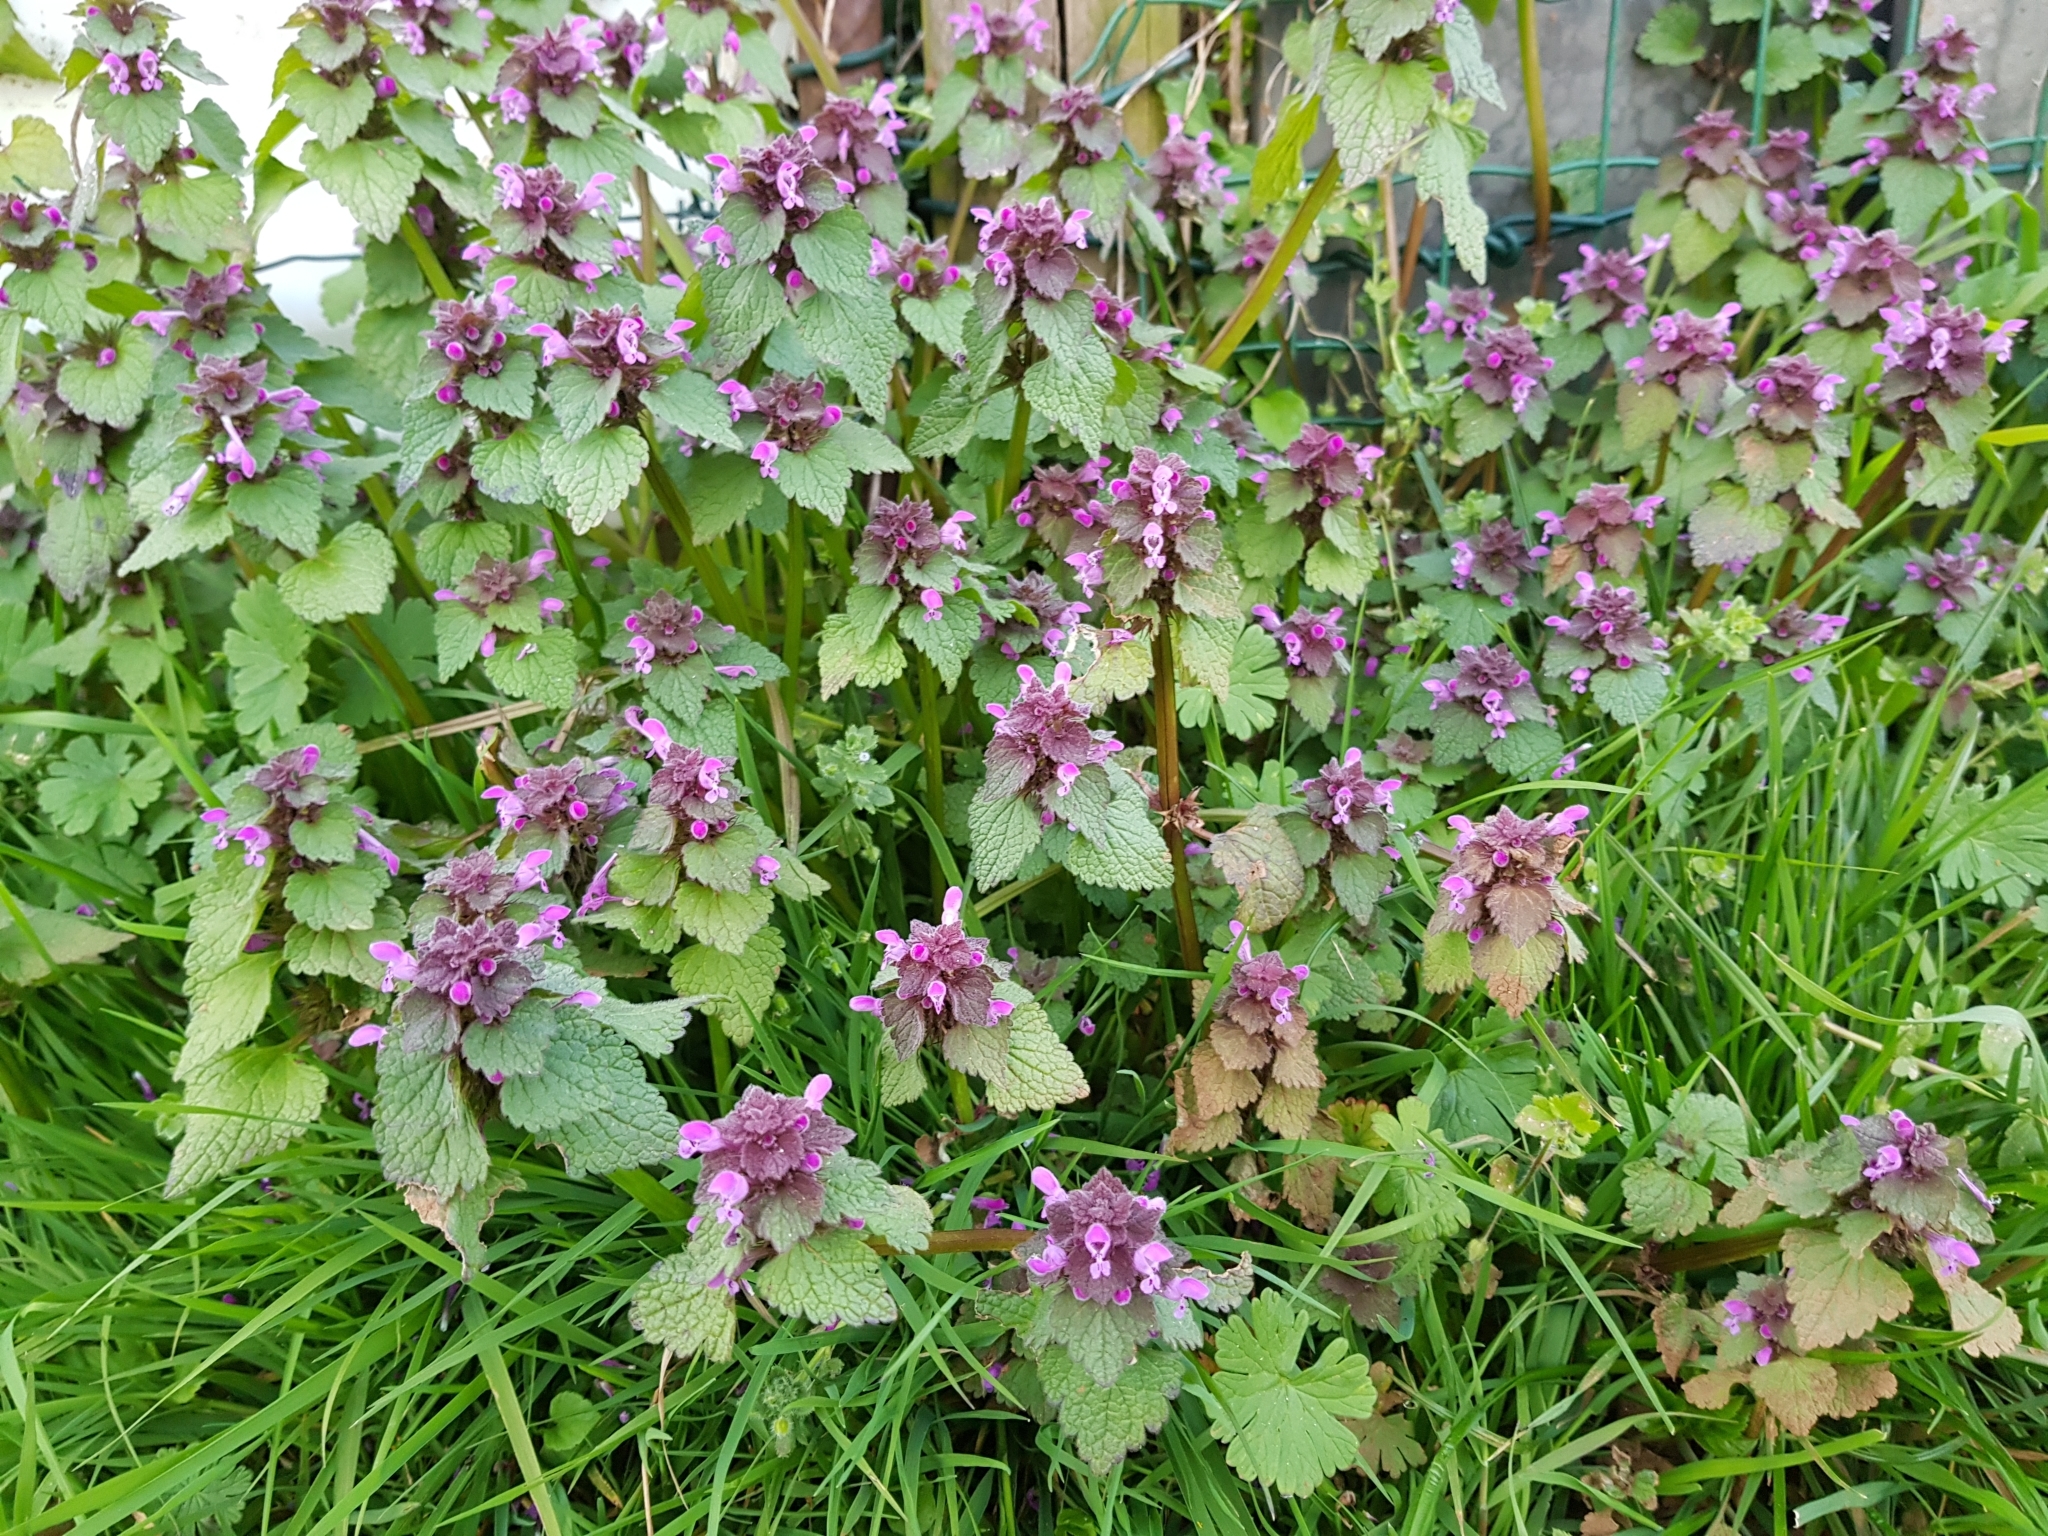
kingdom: Plantae
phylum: Tracheophyta
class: Magnoliopsida
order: Lamiales
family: Lamiaceae
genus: Lamium
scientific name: Lamium purpureum
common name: Red dead-nettle
